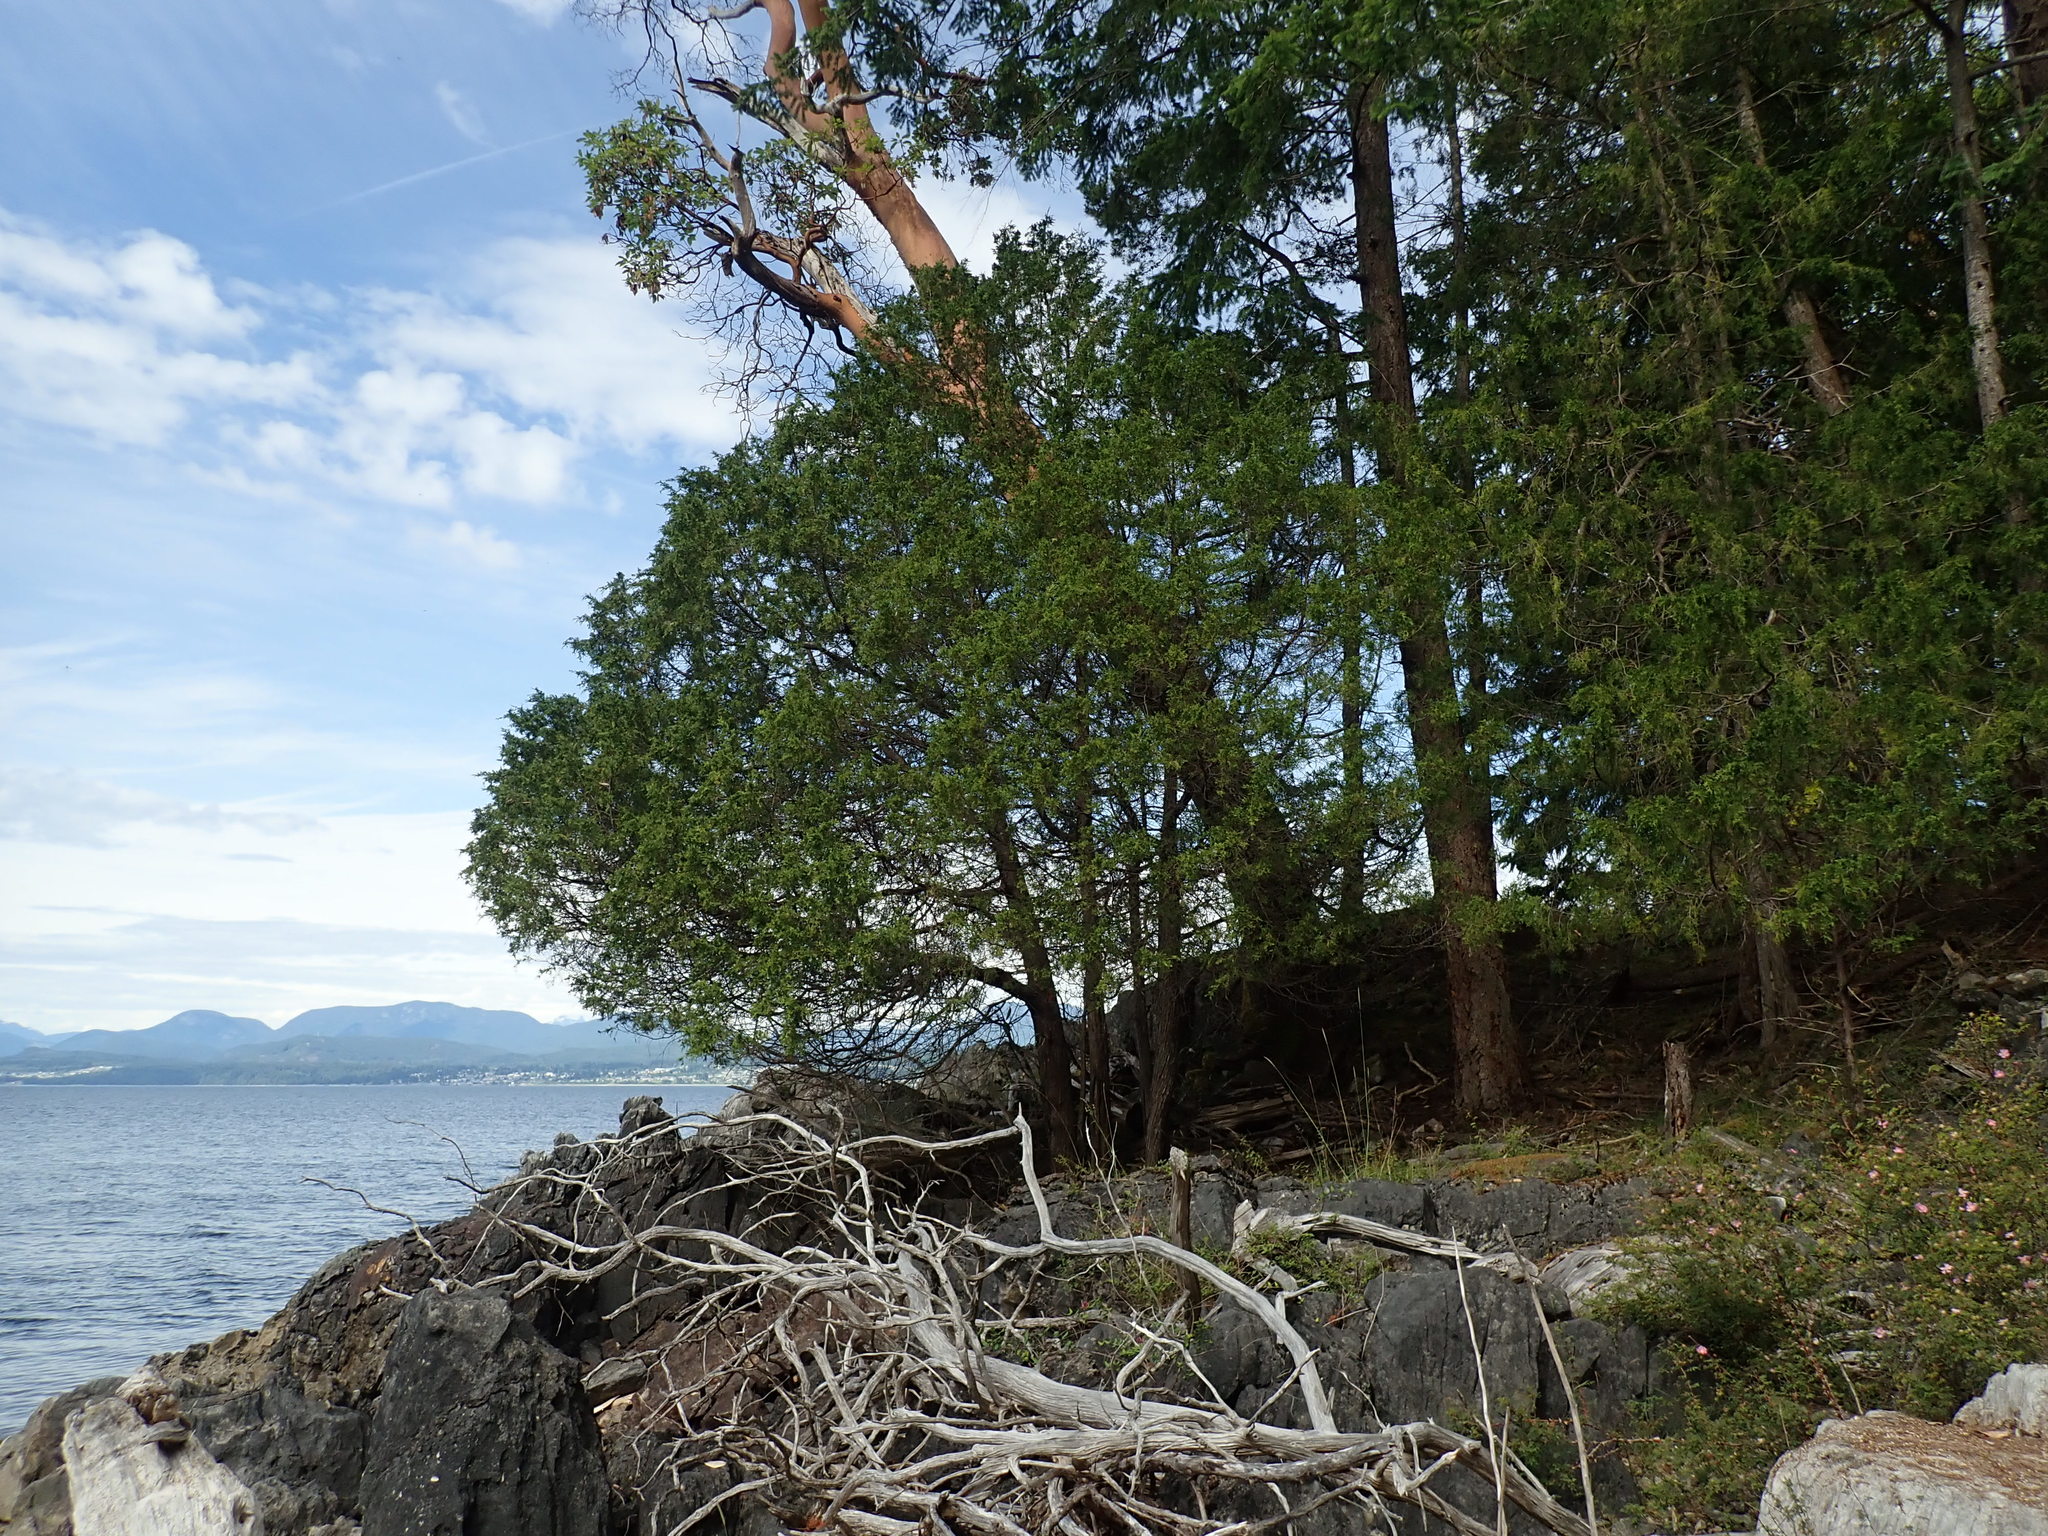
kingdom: Plantae
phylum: Tracheophyta
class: Pinopsida
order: Pinales
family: Cupressaceae
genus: Juniperus
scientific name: Juniperus scopulorum
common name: Rocky mountain juniper
